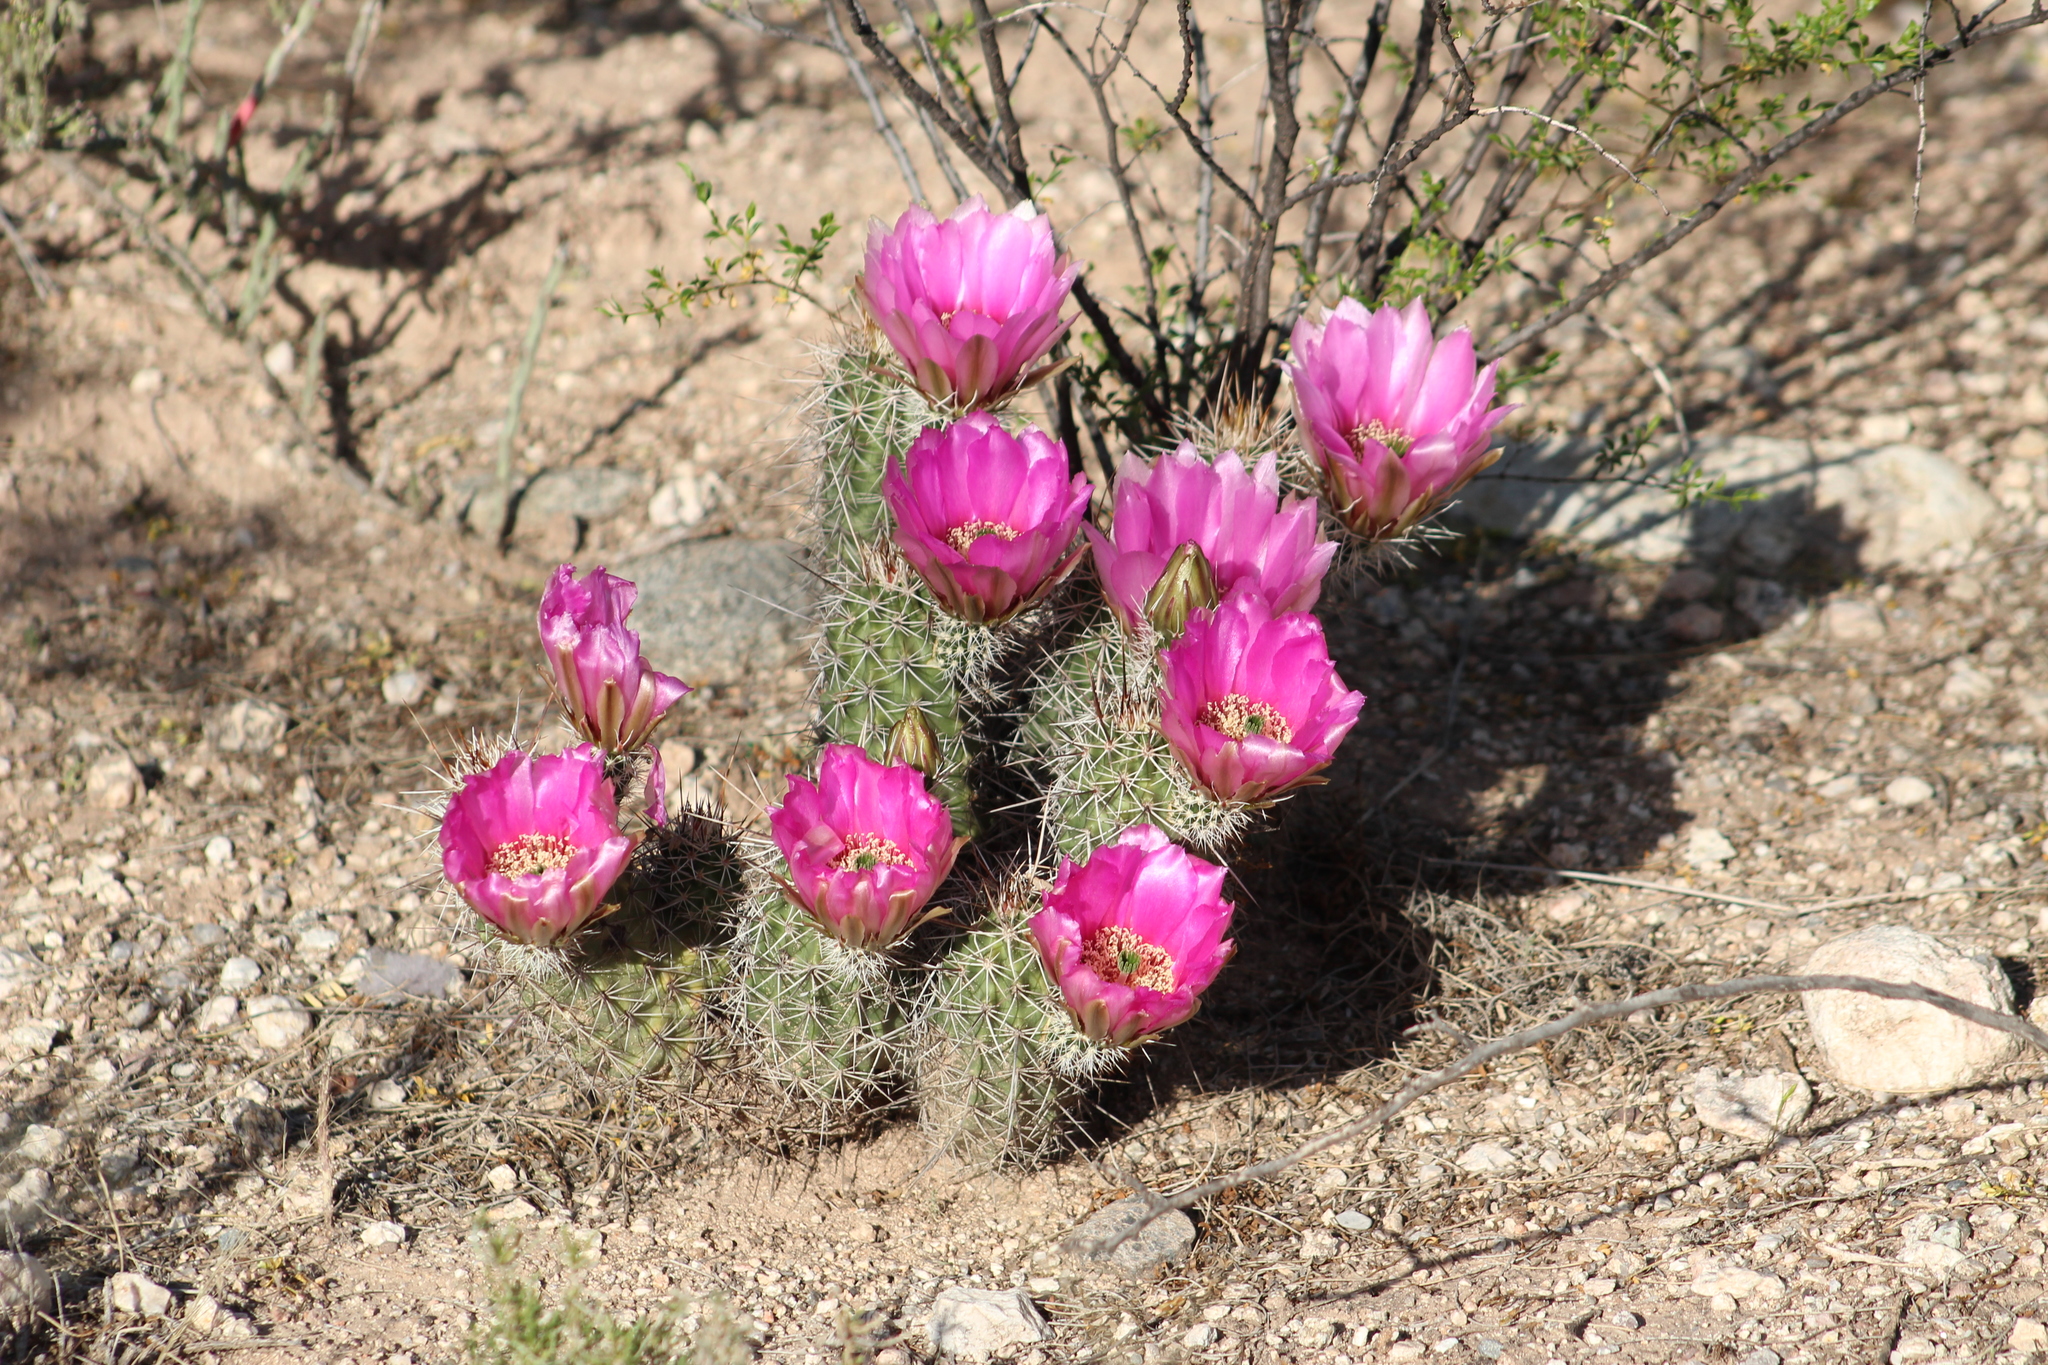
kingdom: Plantae
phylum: Tracheophyta
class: Magnoliopsida
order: Caryophyllales
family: Cactaceae
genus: Echinocereus
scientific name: Echinocereus fasciculatus
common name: Bundle hedgehog
